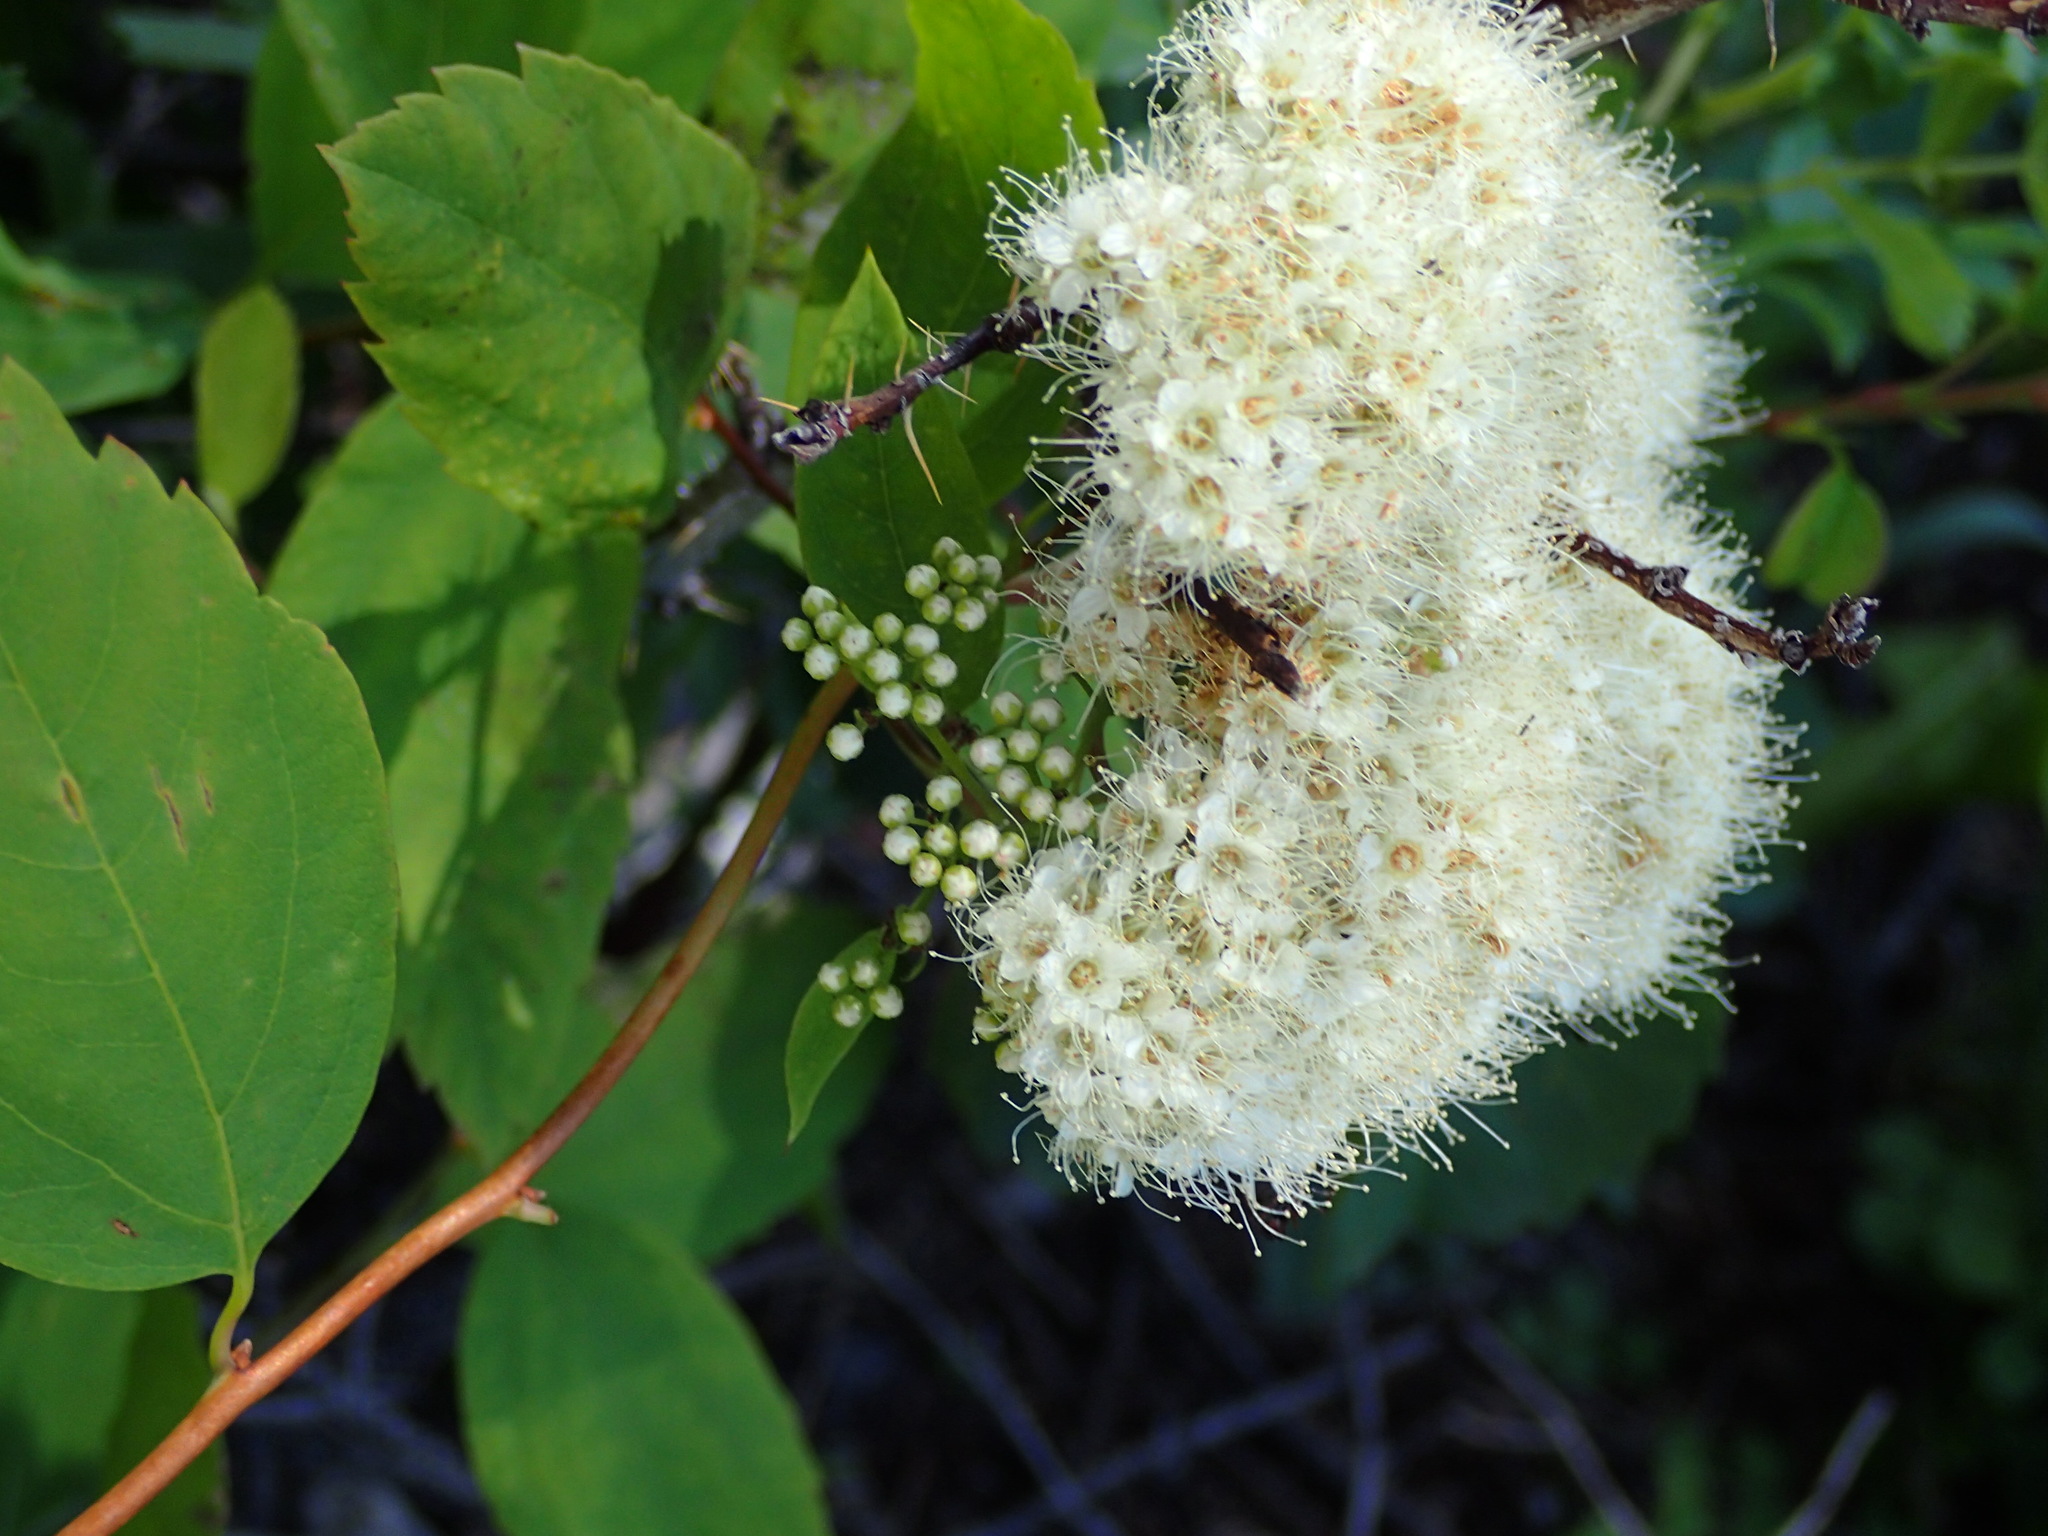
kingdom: Plantae
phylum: Tracheophyta
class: Magnoliopsida
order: Rosales
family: Rosaceae
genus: Spiraea
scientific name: Spiraea lucida
